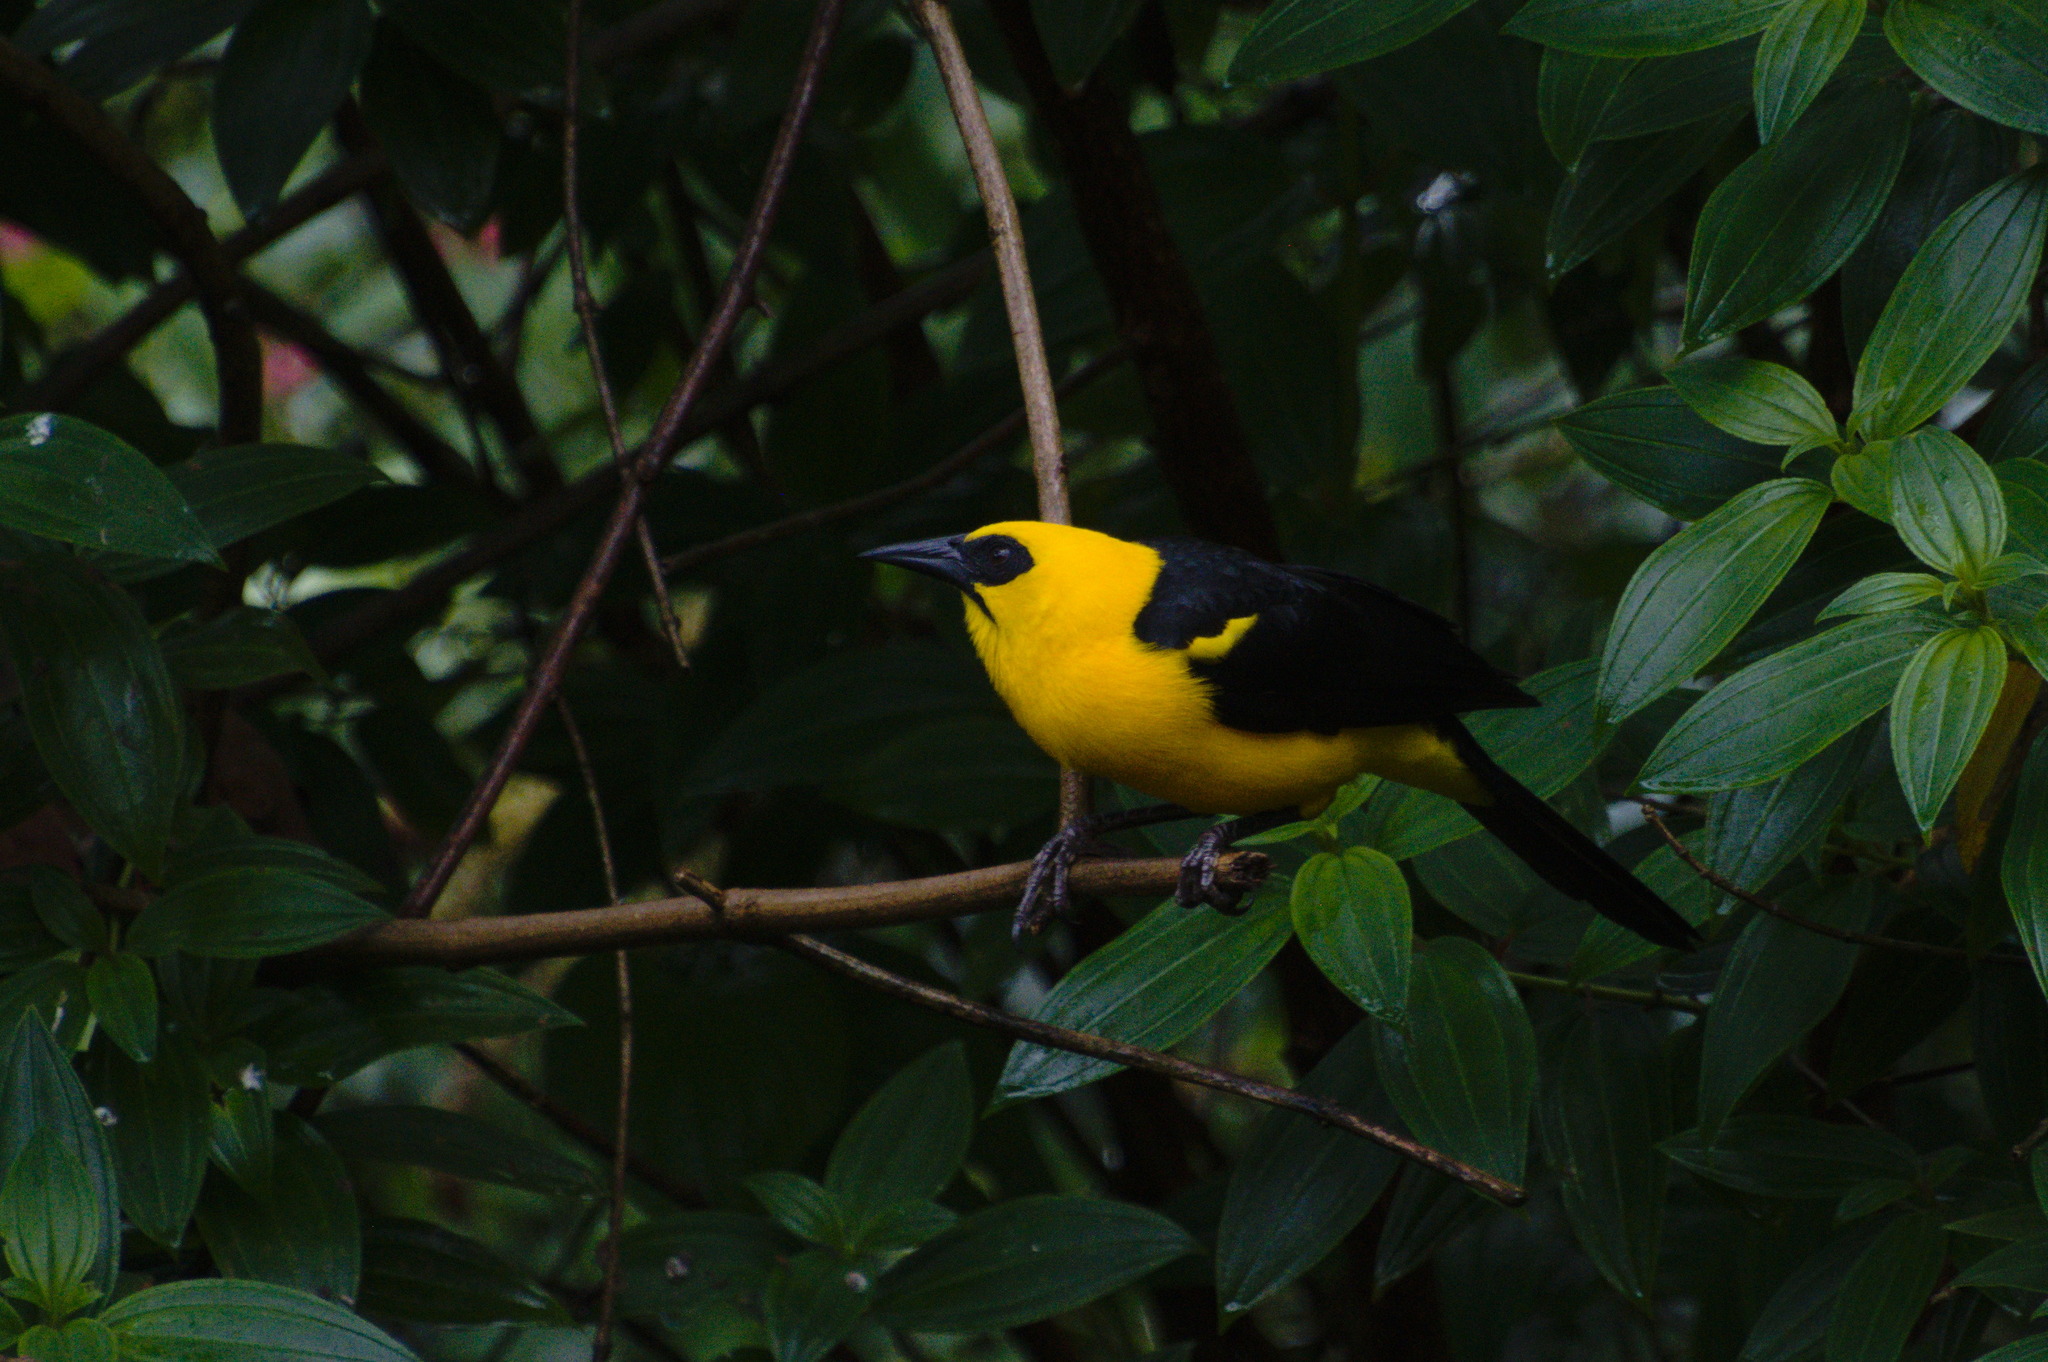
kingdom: Animalia
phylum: Chordata
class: Aves
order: Passeriformes
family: Icteridae
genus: Gymnomystax
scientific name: Gymnomystax mexicanus
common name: Oriole blackbird
